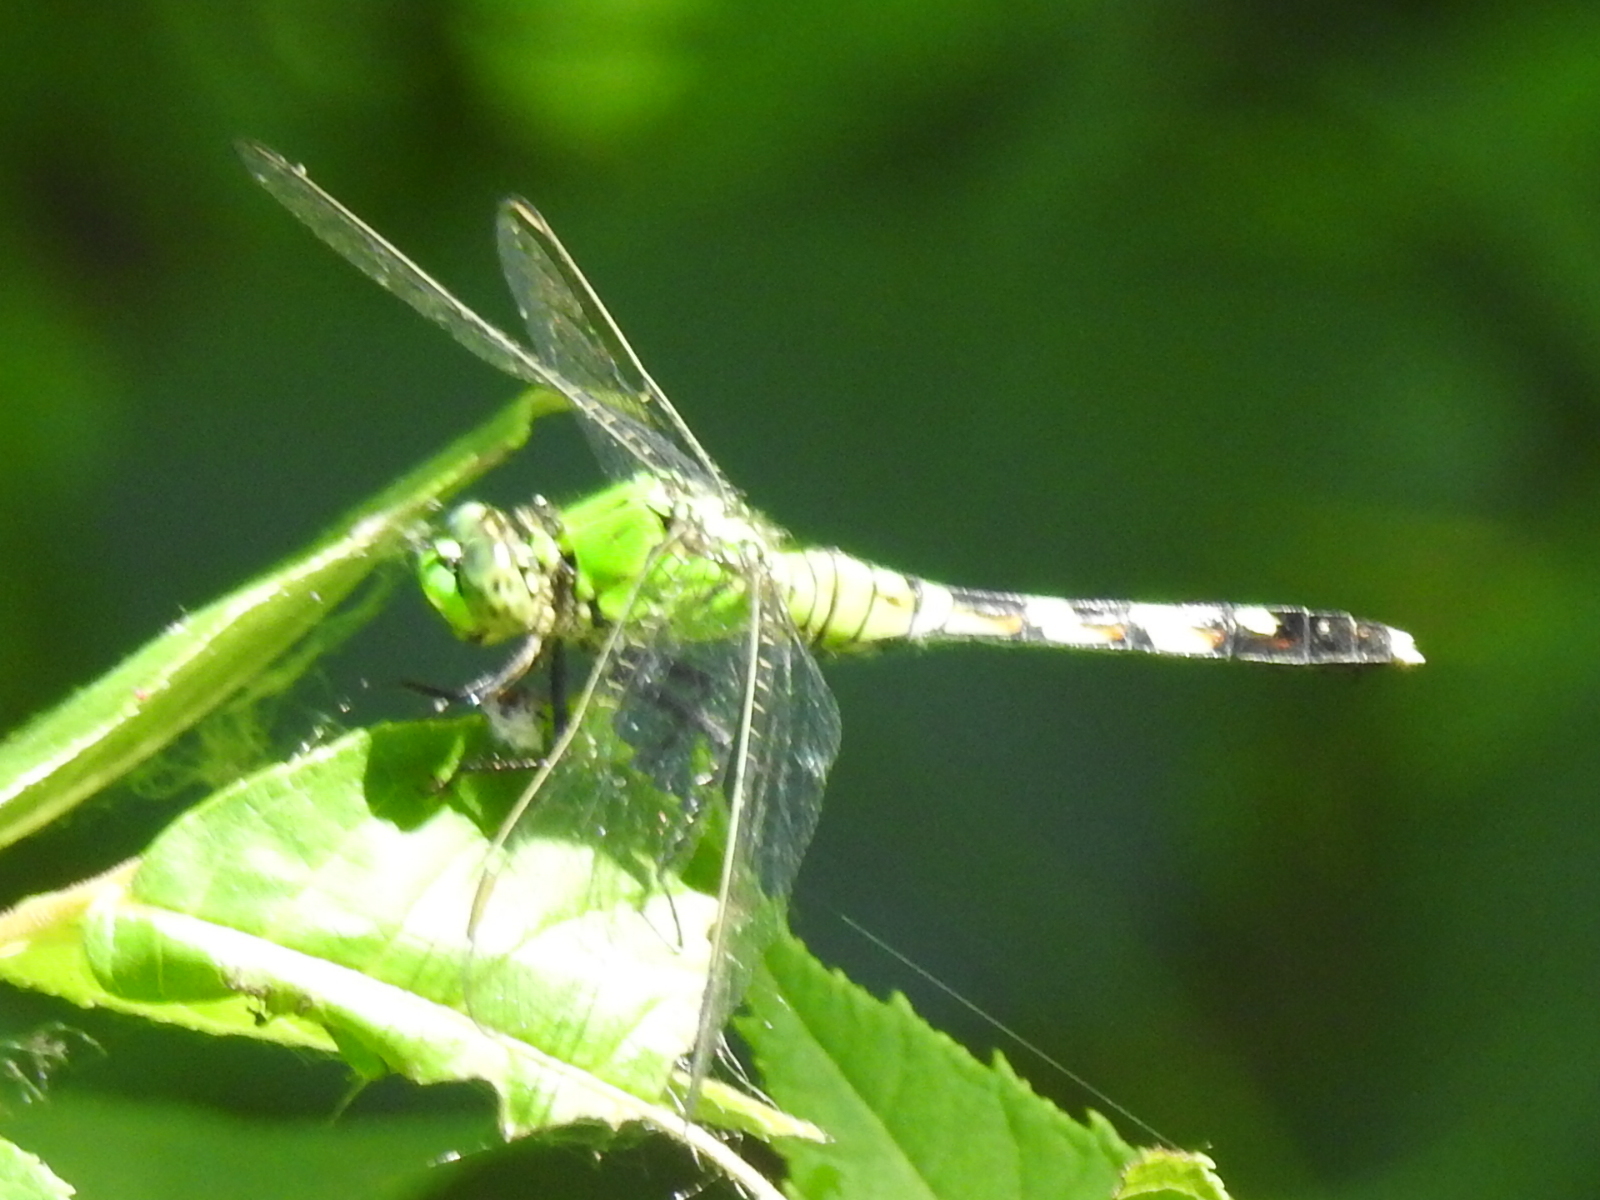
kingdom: Animalia
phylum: Arthropoda
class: Insecta
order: Odonata
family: Libellulidae
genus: Erythemis
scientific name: Erythemis simplicicollis
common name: Eastern pondhawk
